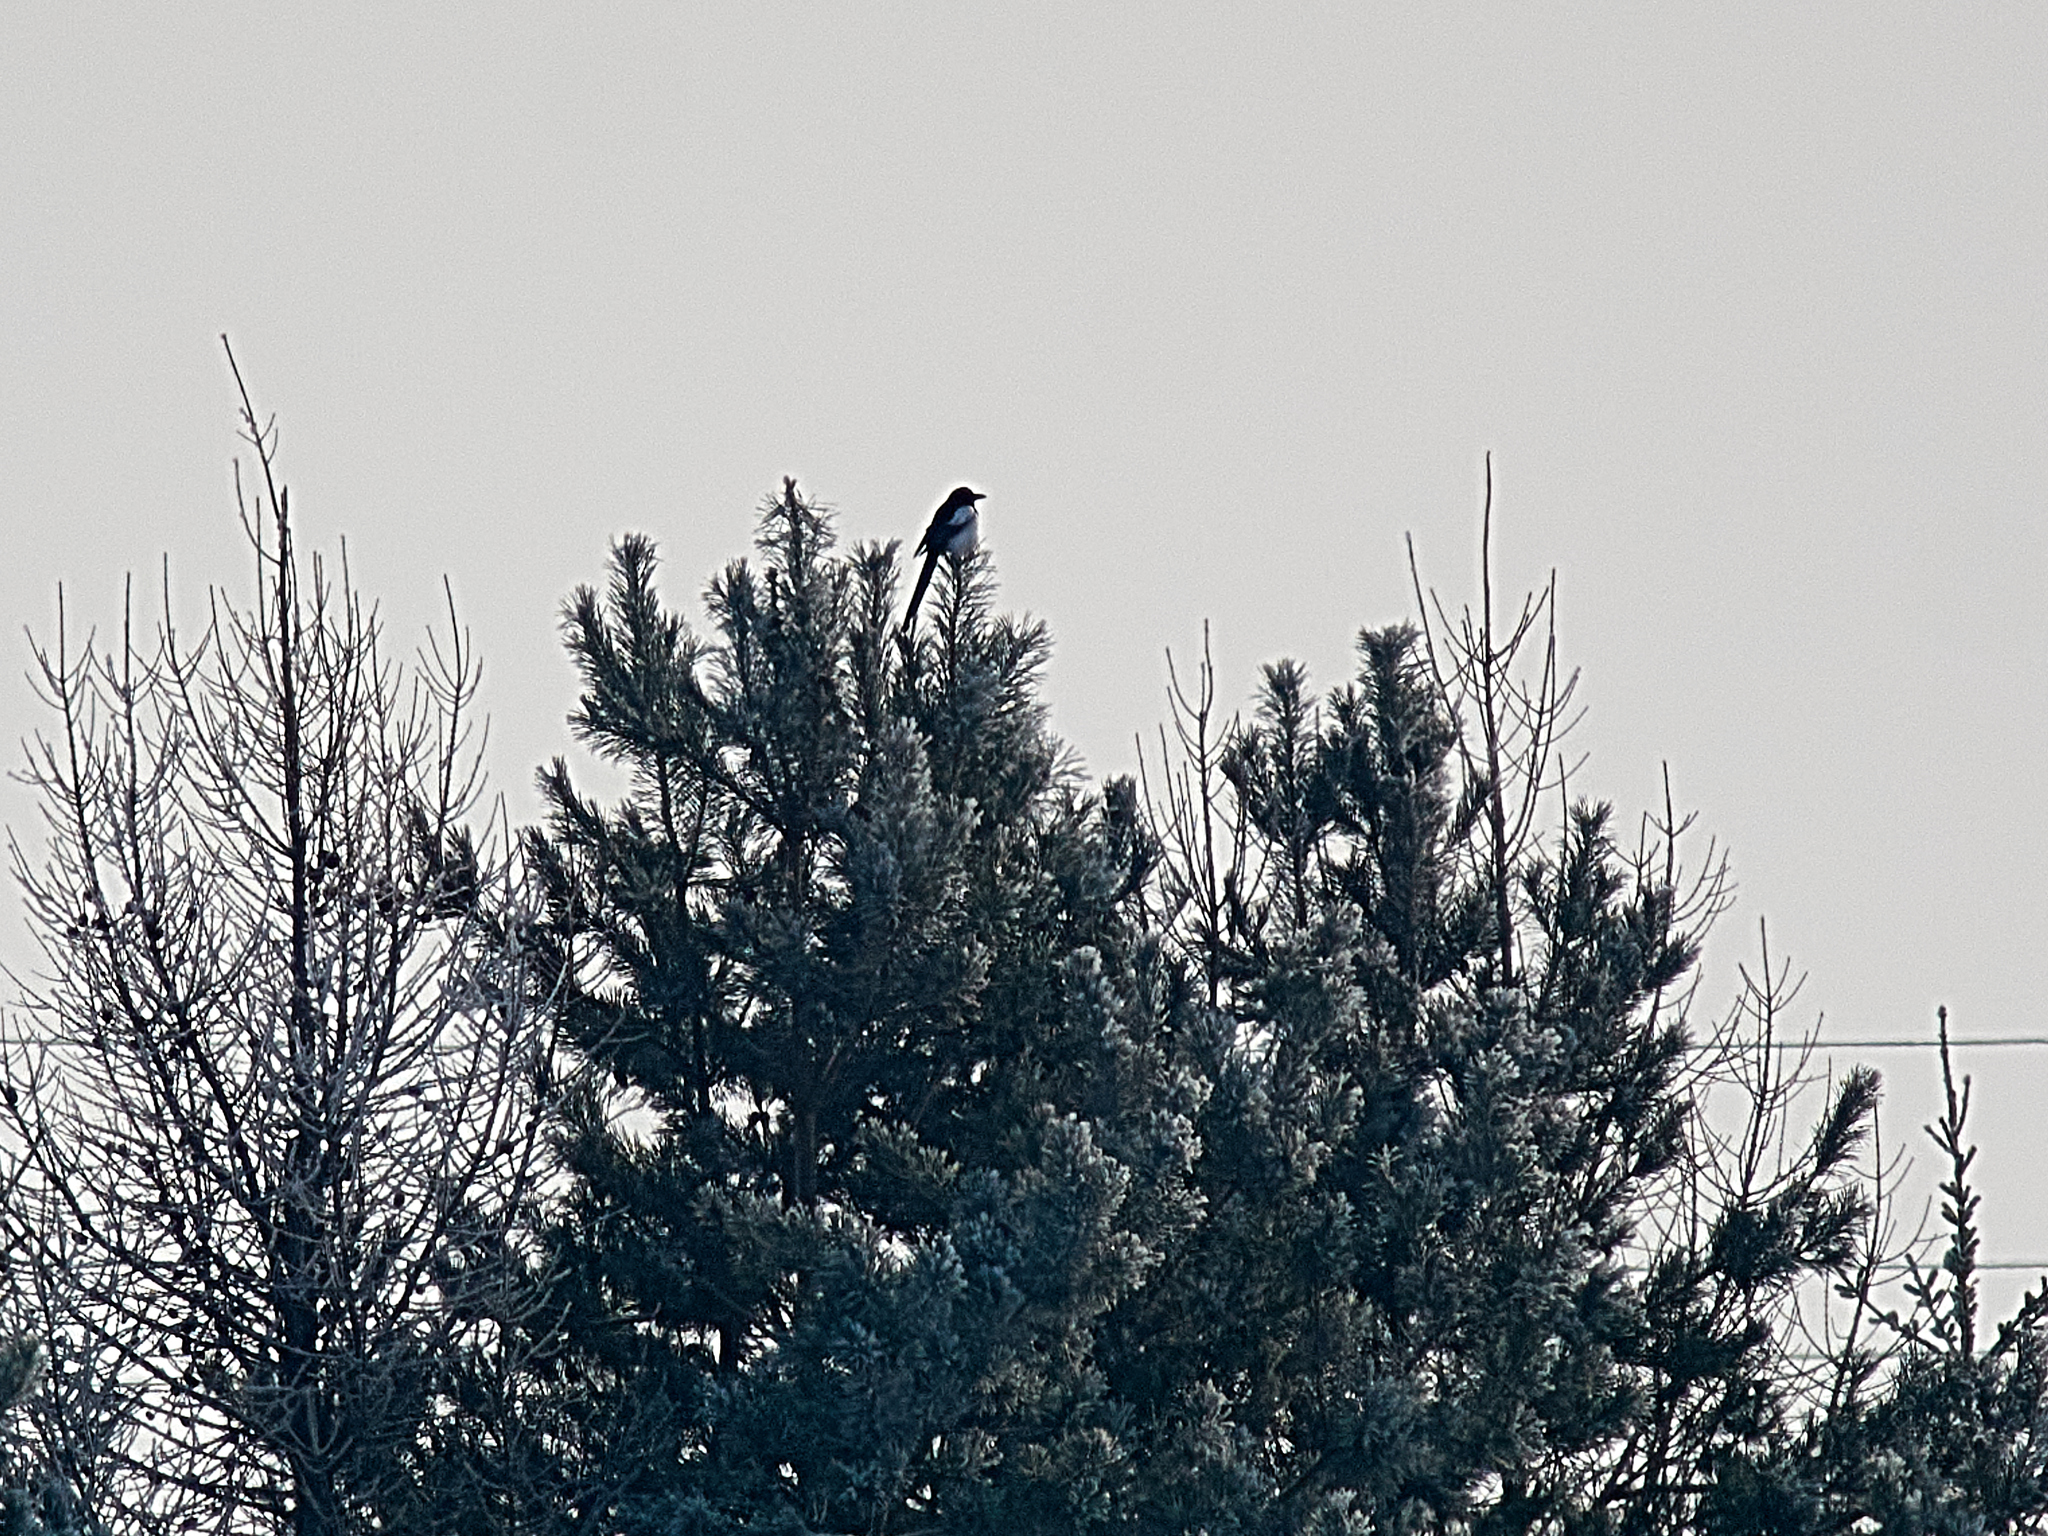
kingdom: Animalia
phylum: Chordata
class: Aves
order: Passeriformes
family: Corvidae
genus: Pica
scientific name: Pica pica
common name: Eurasian magpie
